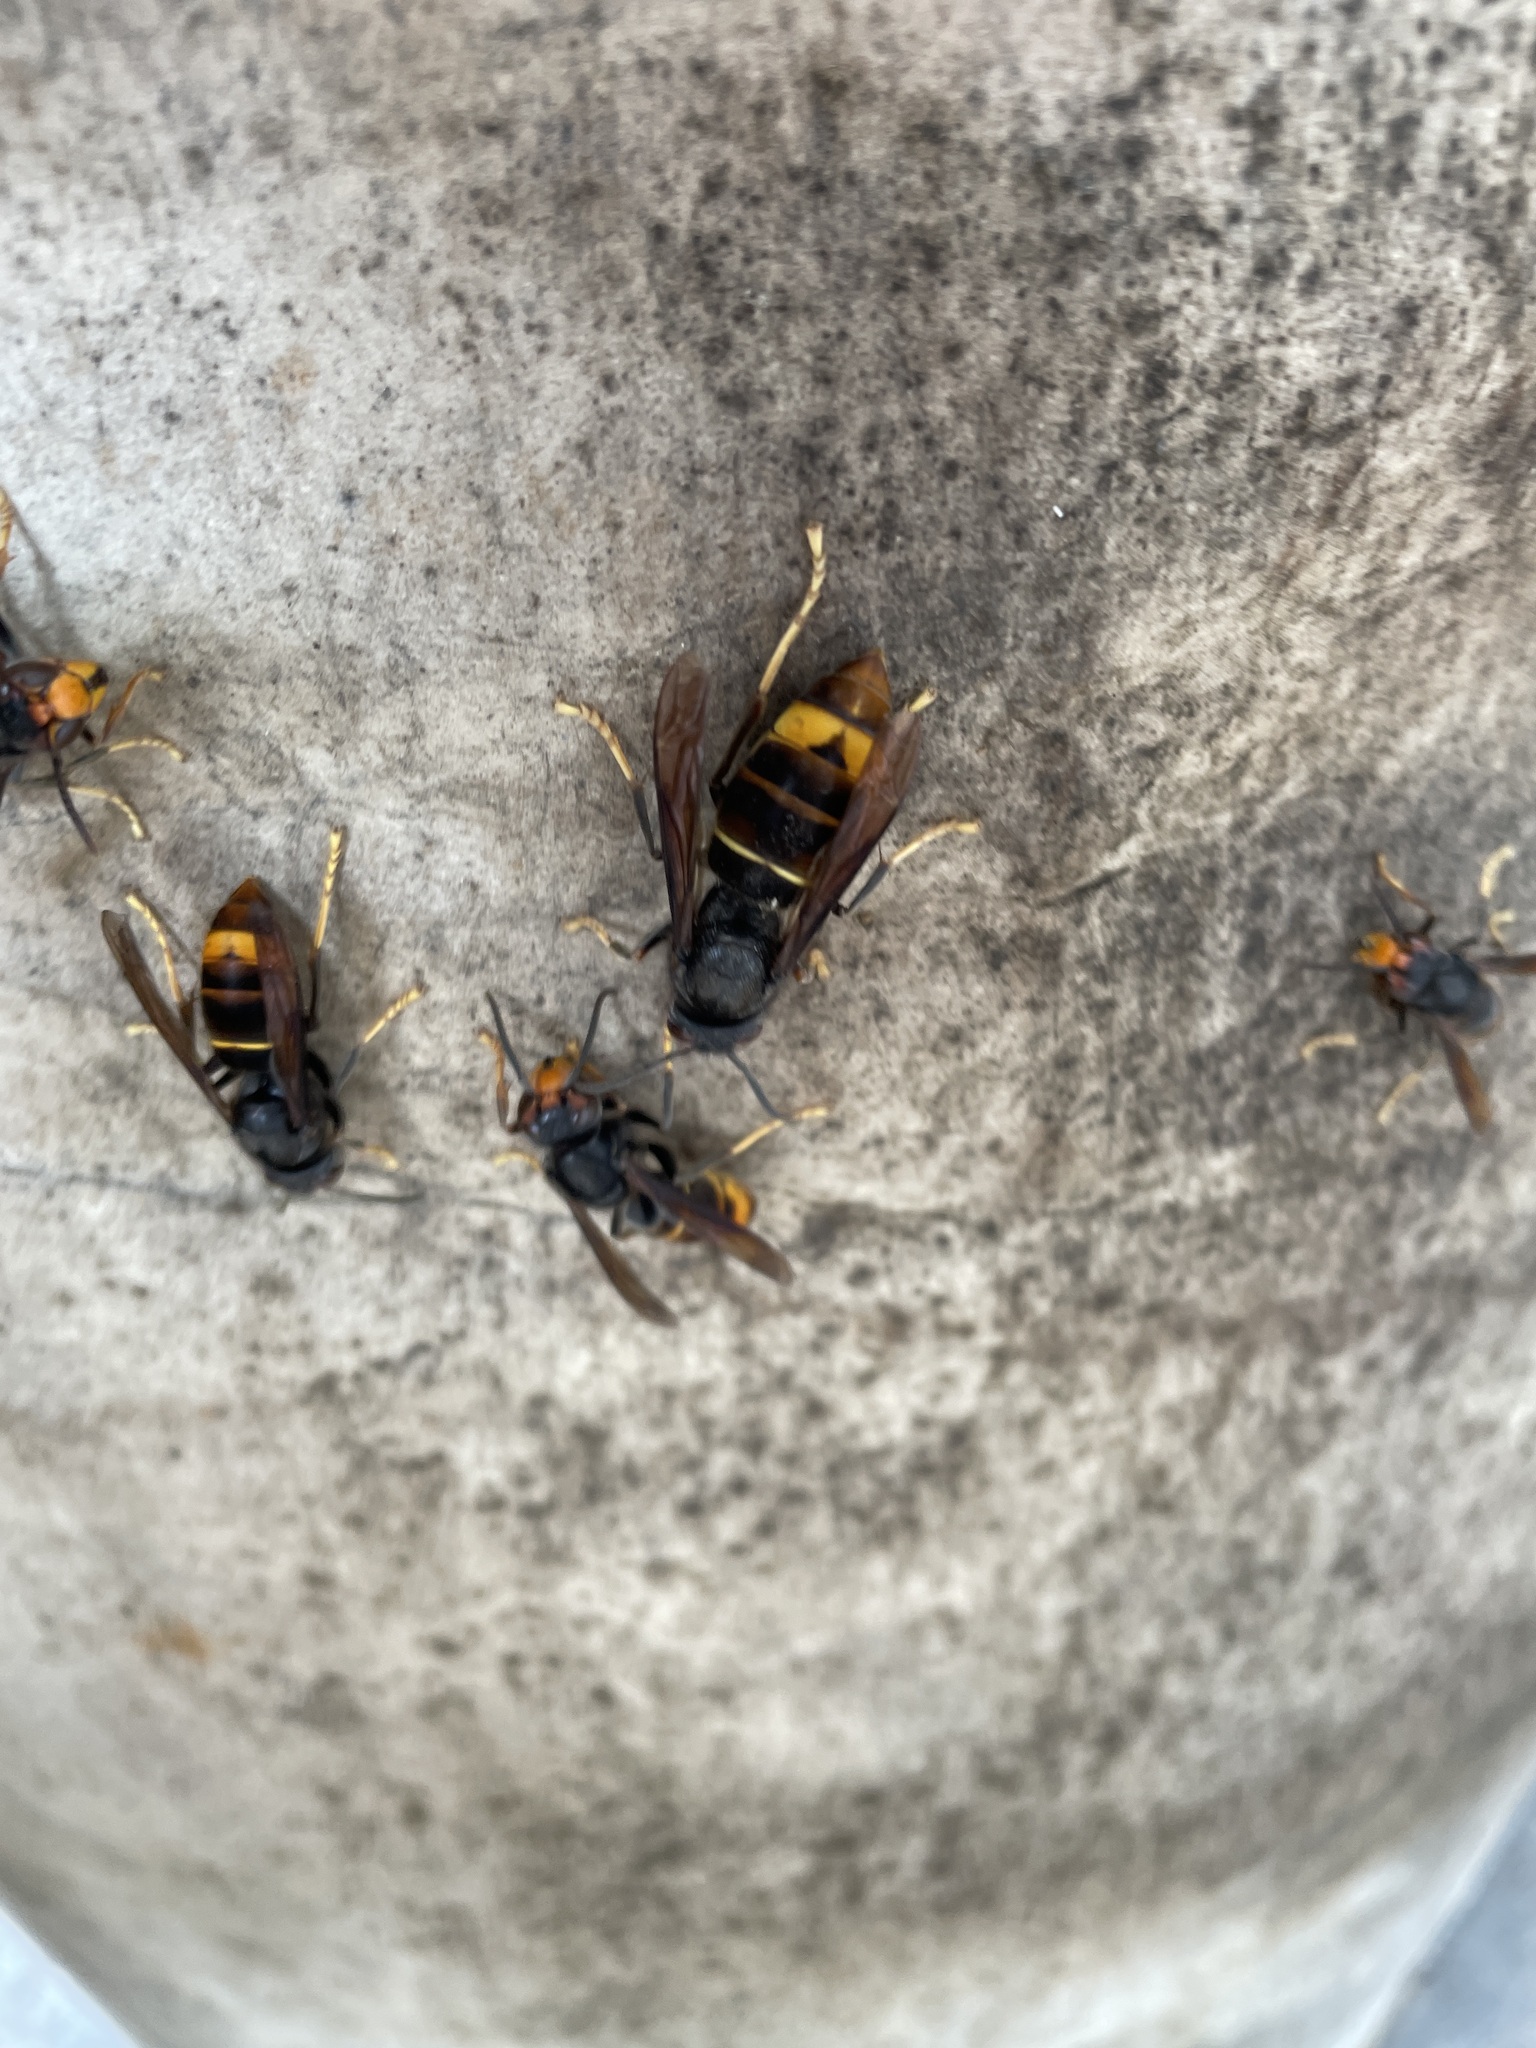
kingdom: Animalia
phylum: Arthropoda
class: Insecta
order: Hymenoptera
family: Vespidae
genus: Vespa
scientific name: Vespa velutina
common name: Asian hornet
